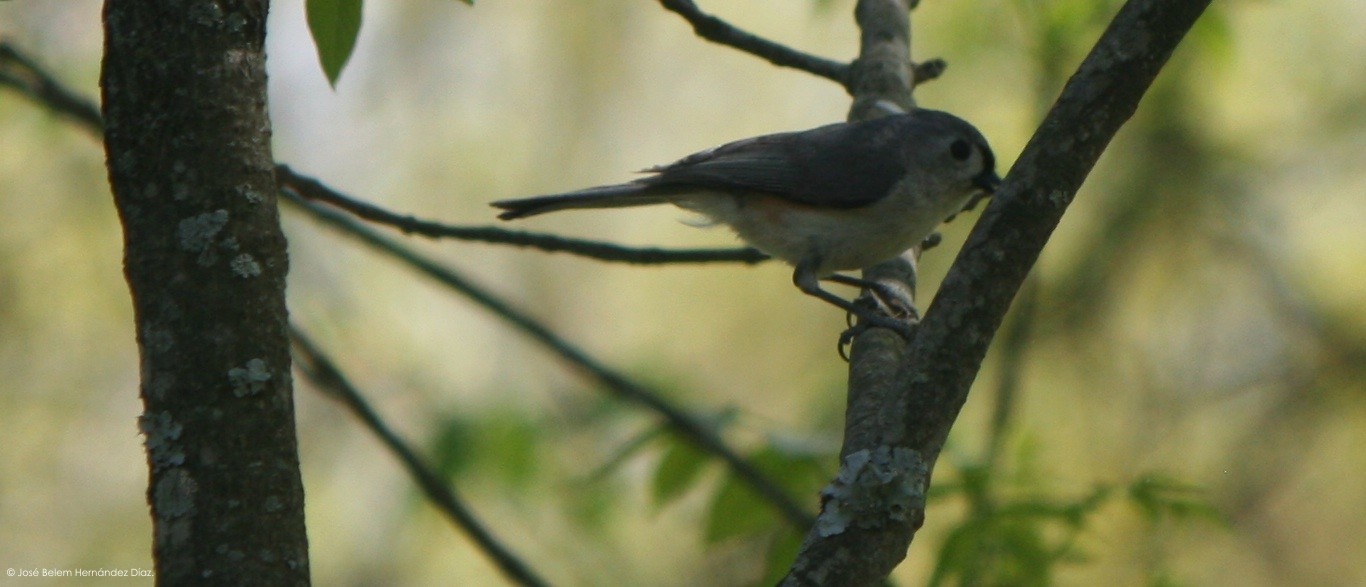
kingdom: Animalia
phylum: Chordata
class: Aves
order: Passeriformes
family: Paridae
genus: Baeolophus
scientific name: Baeolophus bicolor
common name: Tufted titmouse
